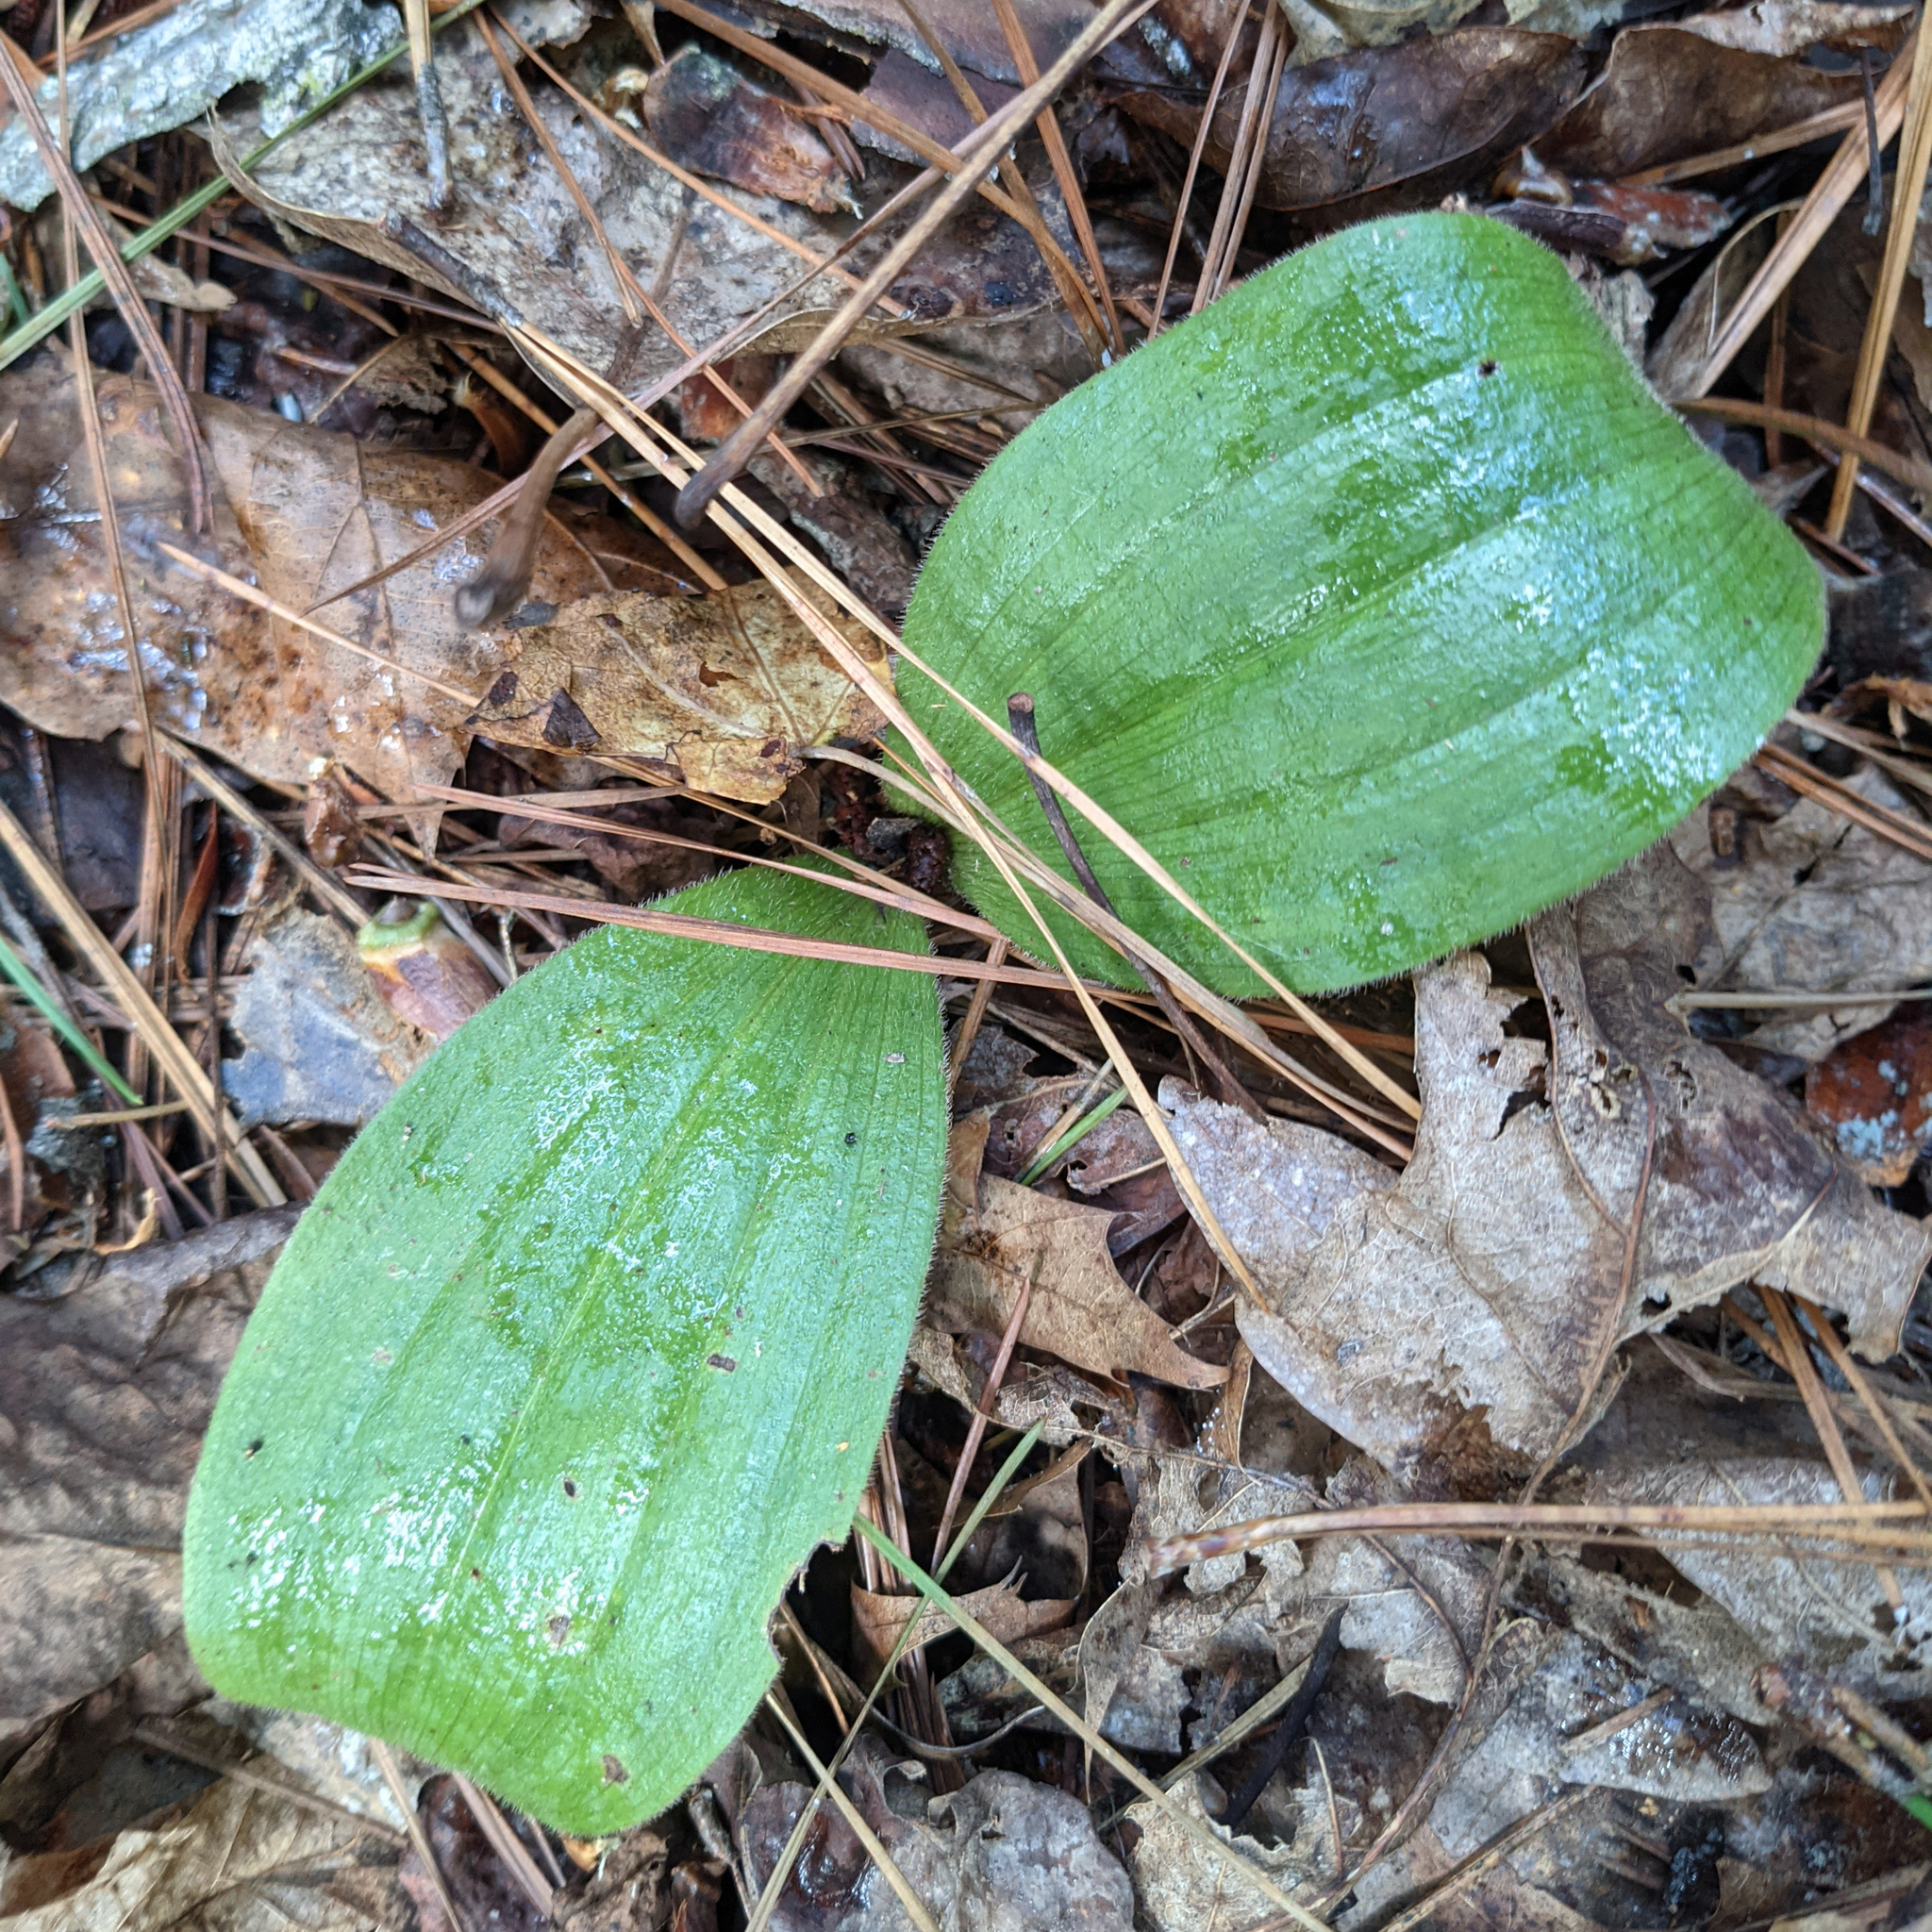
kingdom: Plantae
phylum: Tracheophyta
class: Liliopsida
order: Asparagales
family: Orchidaceae
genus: Cypripedium
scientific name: Cypripedium acaule
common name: Pink lady's-slipper
